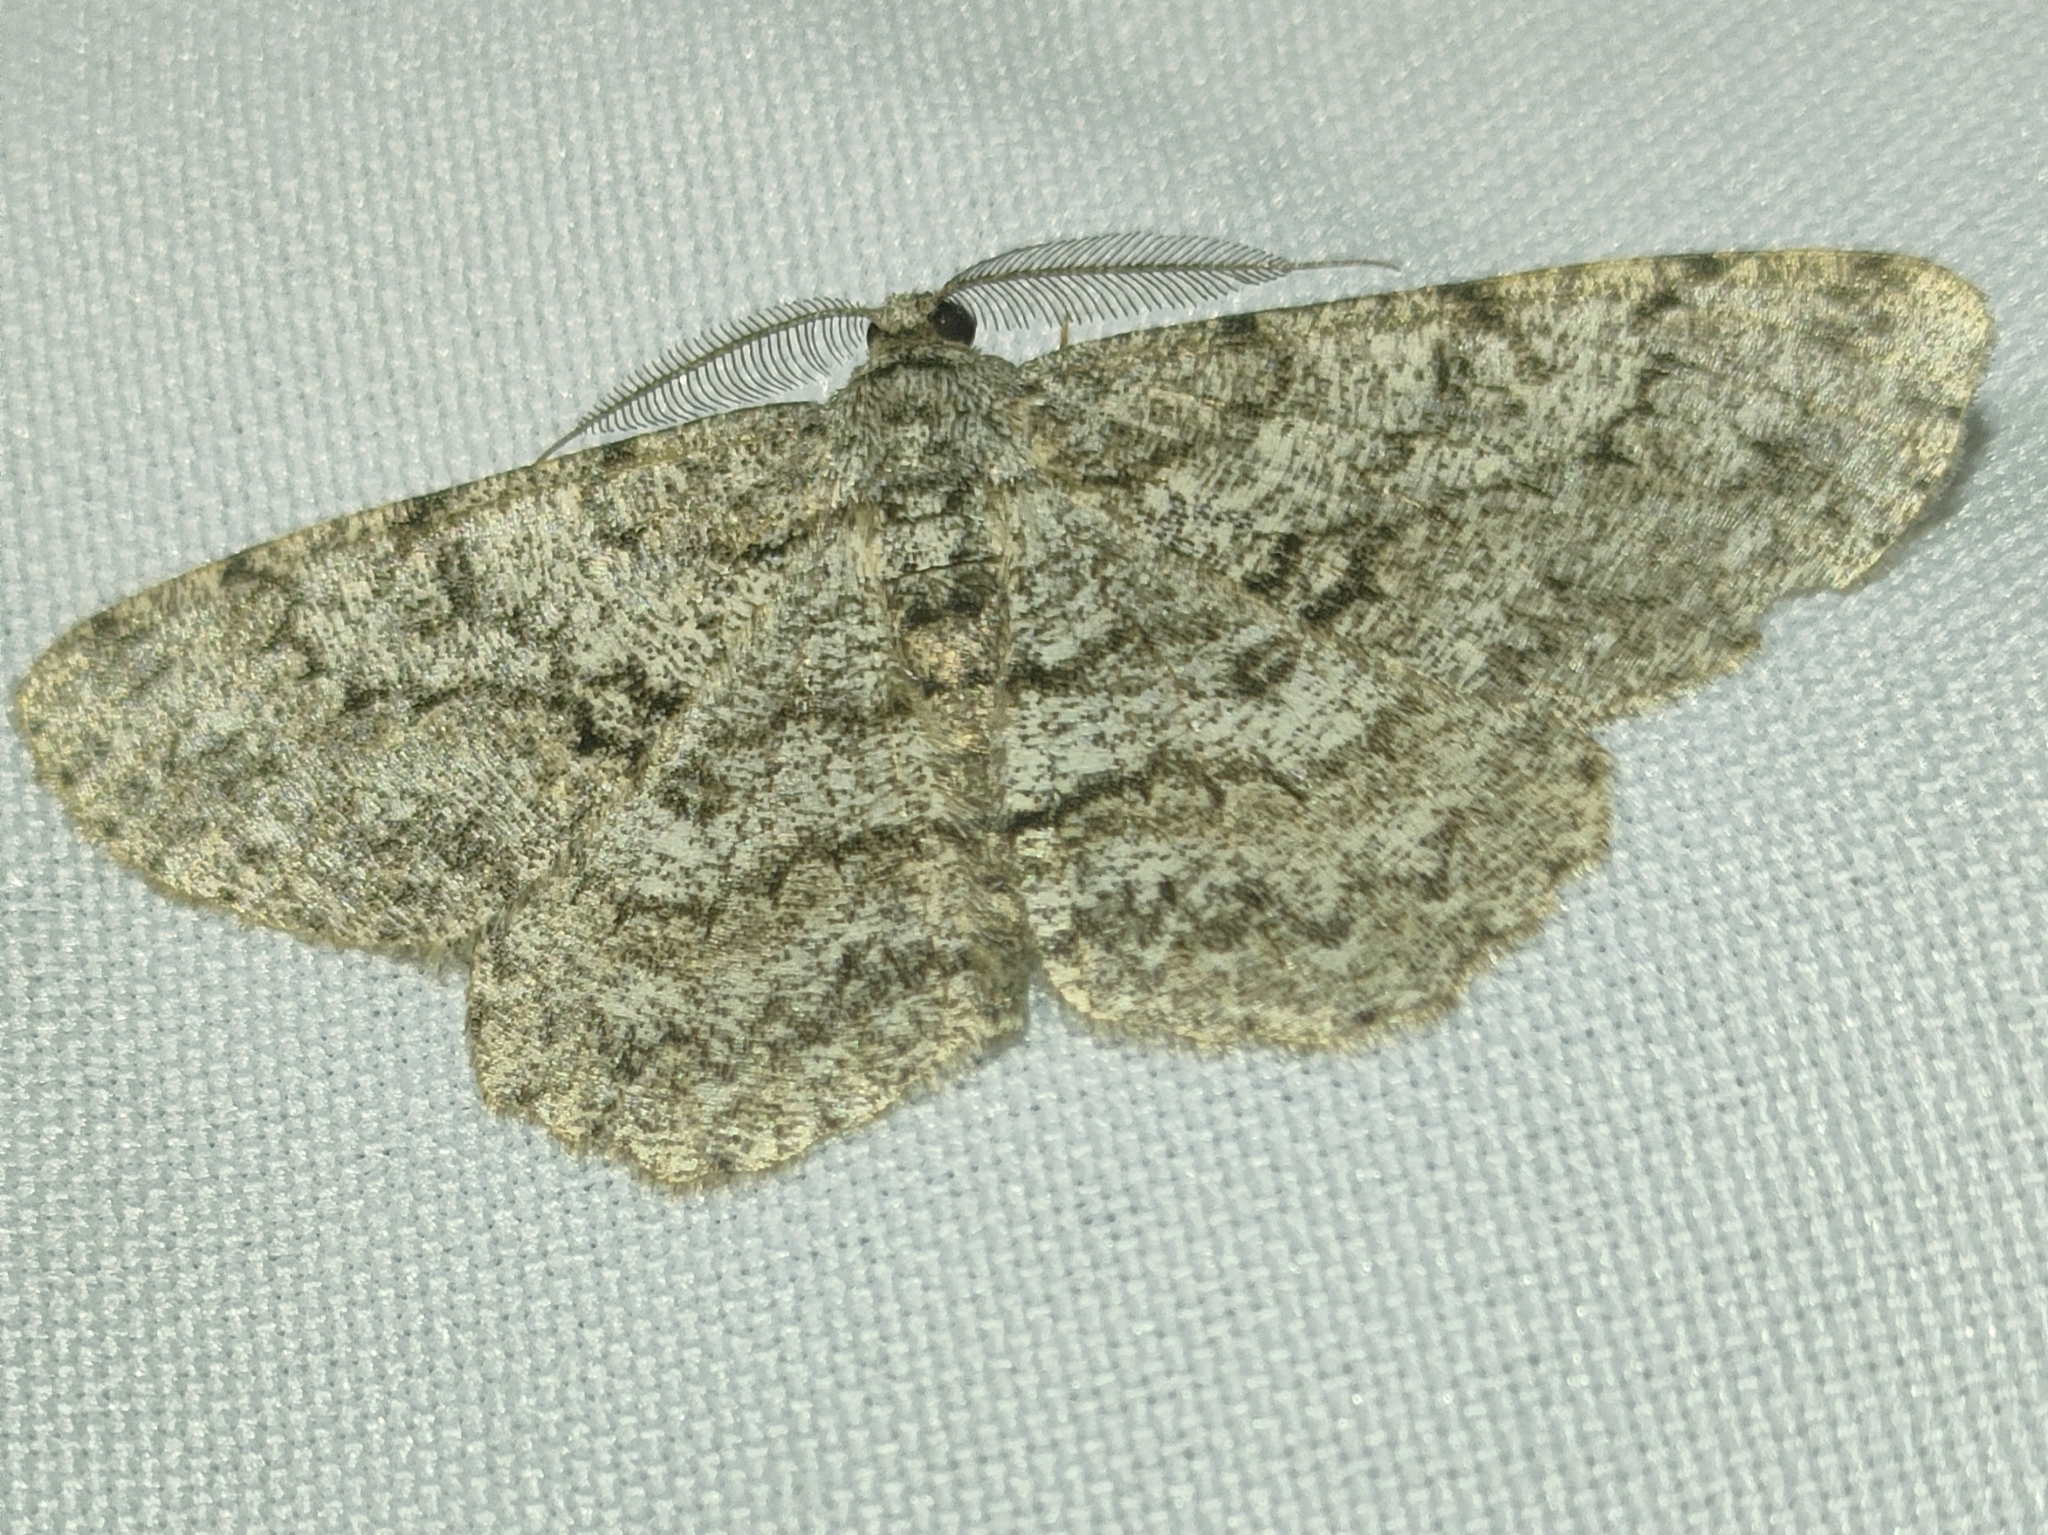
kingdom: Animalia
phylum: Arthropoda
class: Insecta
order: Lepidoptera
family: Geometridae
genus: Hypomecis
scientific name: Hypomecis punctinalis
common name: Pale oak beauty
